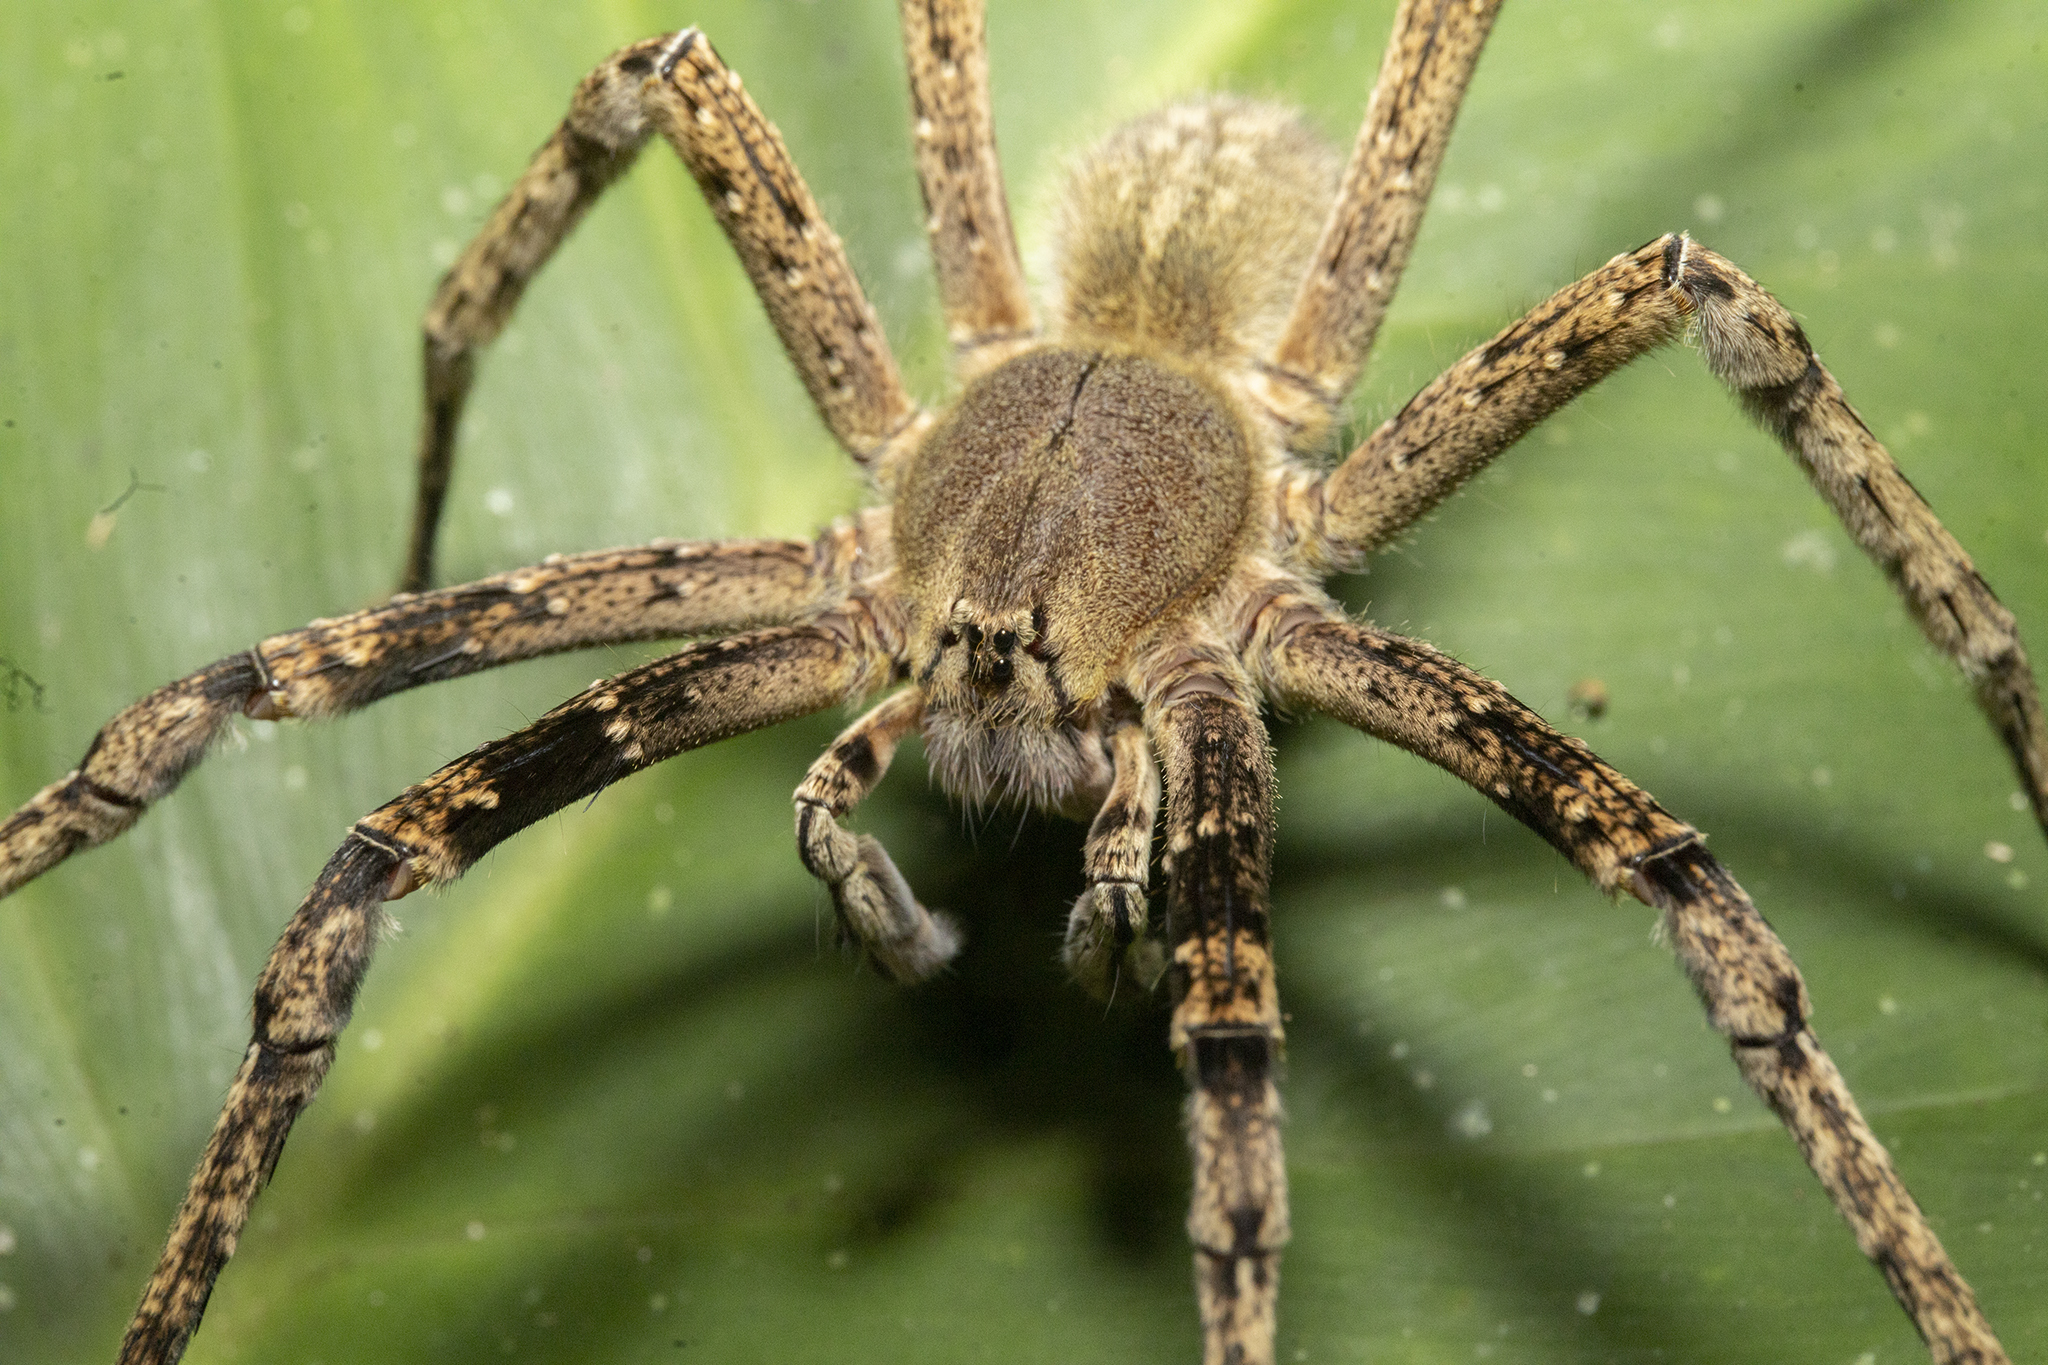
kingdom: Animalia
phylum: Arthropoda
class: Arachnida
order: Araneae
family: Ctenidae
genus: Phoneutria
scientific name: Phoneutria fera
